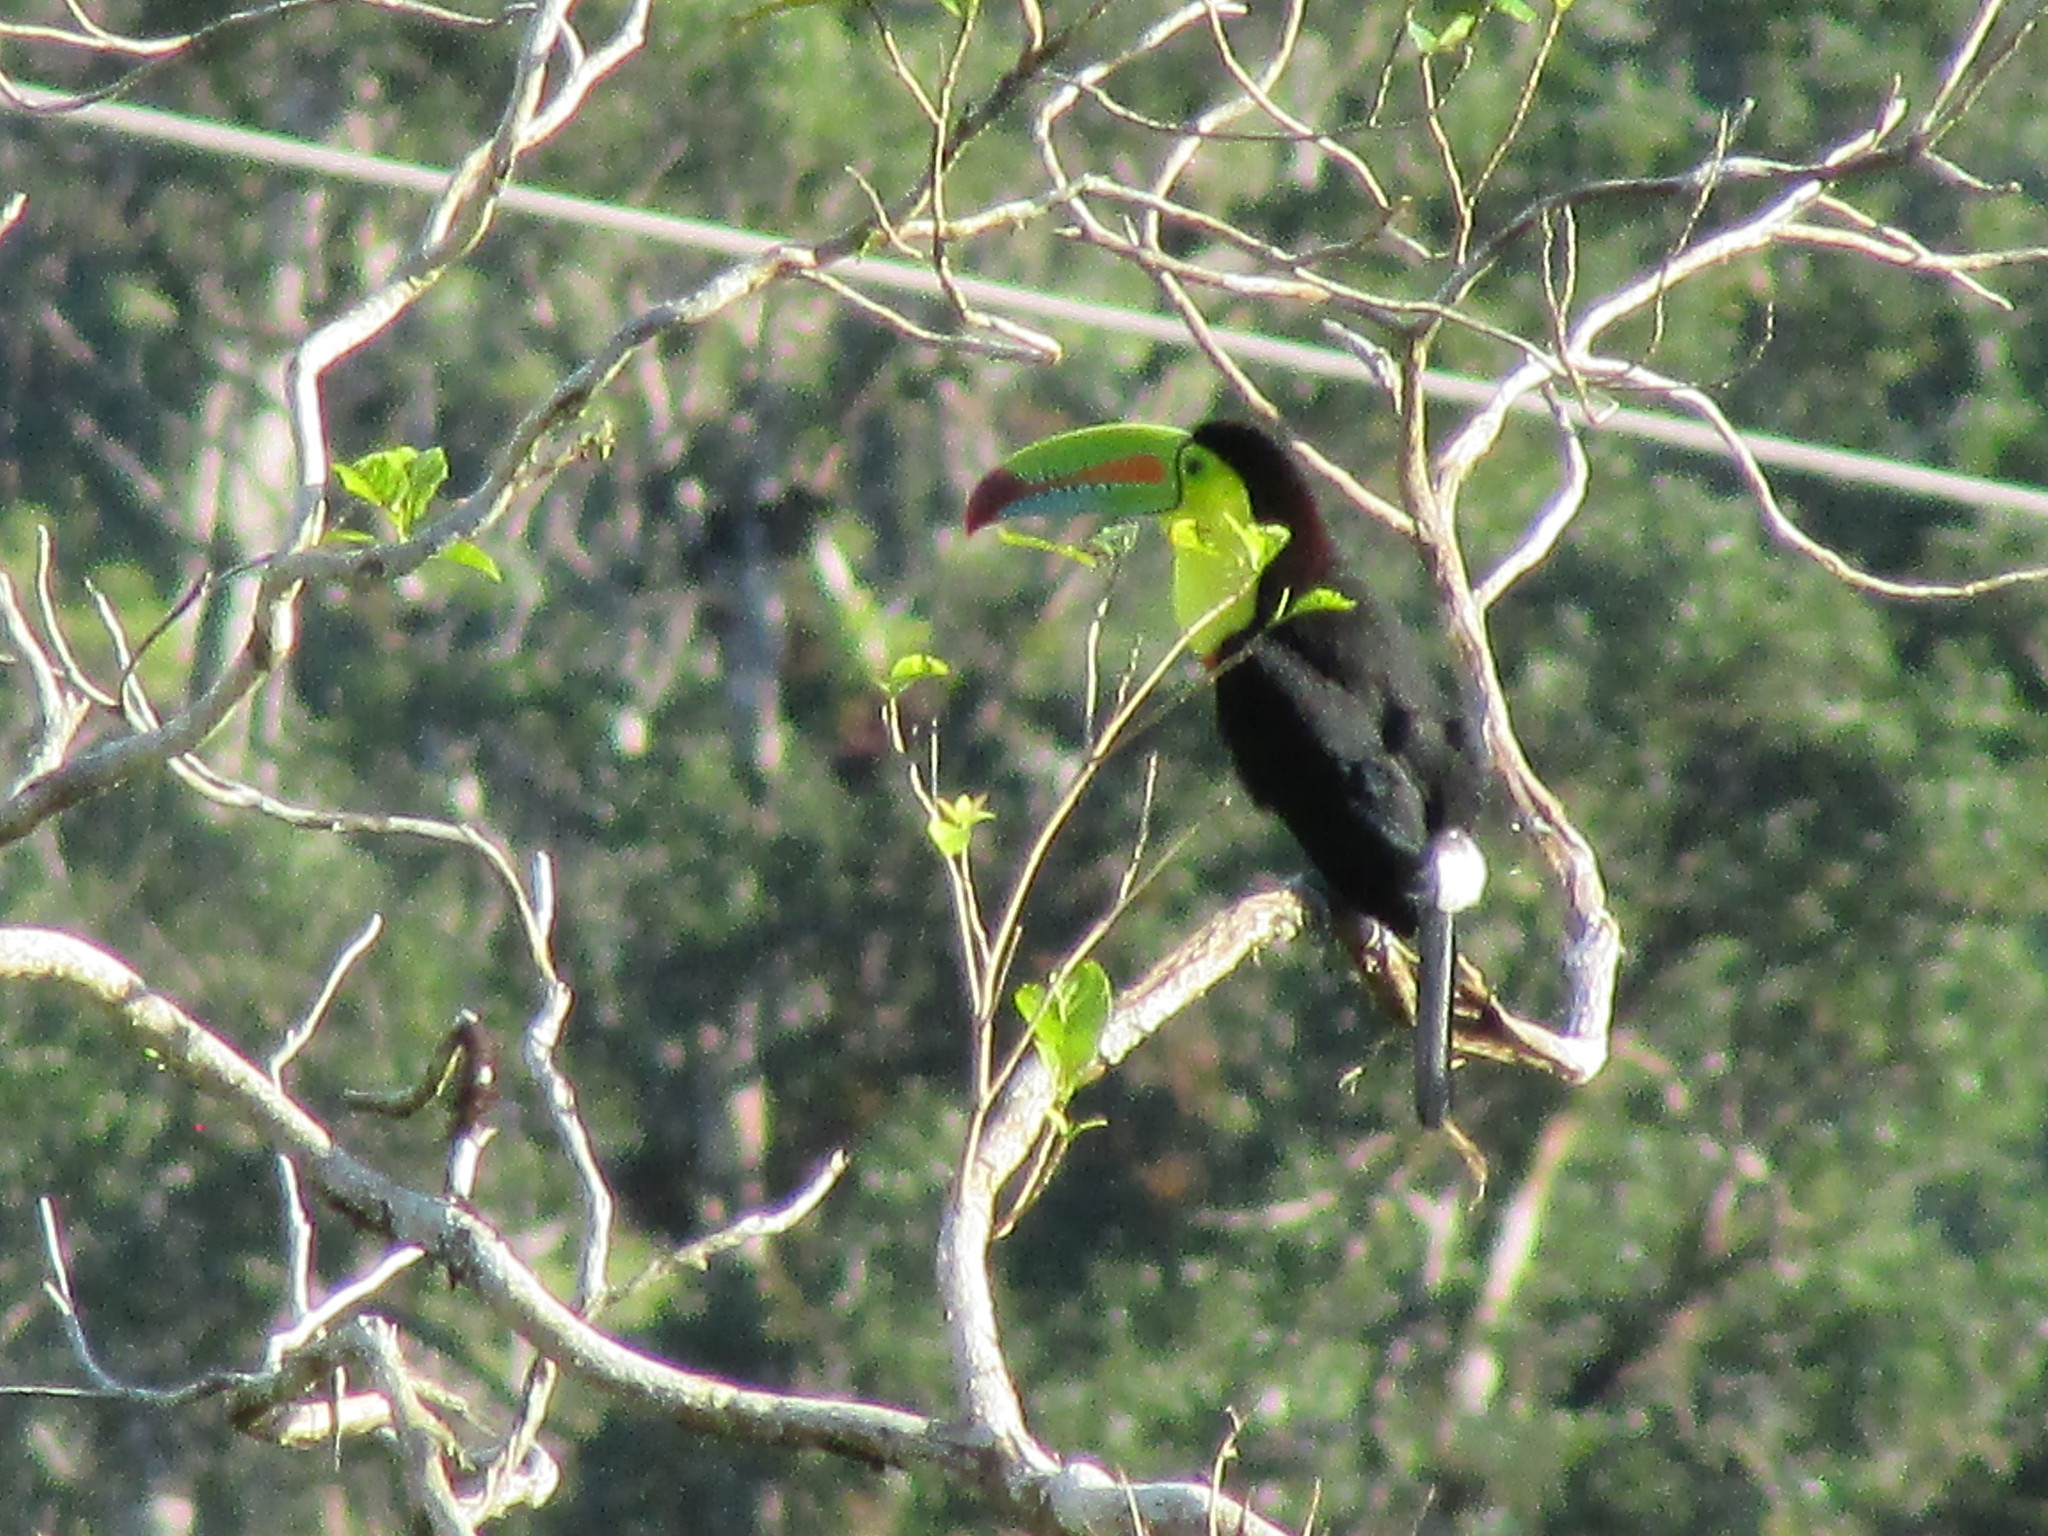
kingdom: Animalia
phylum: Chordata
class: Aves
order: Piciformes
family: Ramphastidae
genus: Ramphastos
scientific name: Ramphastos sulfuratus
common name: Keel-billed toucan
